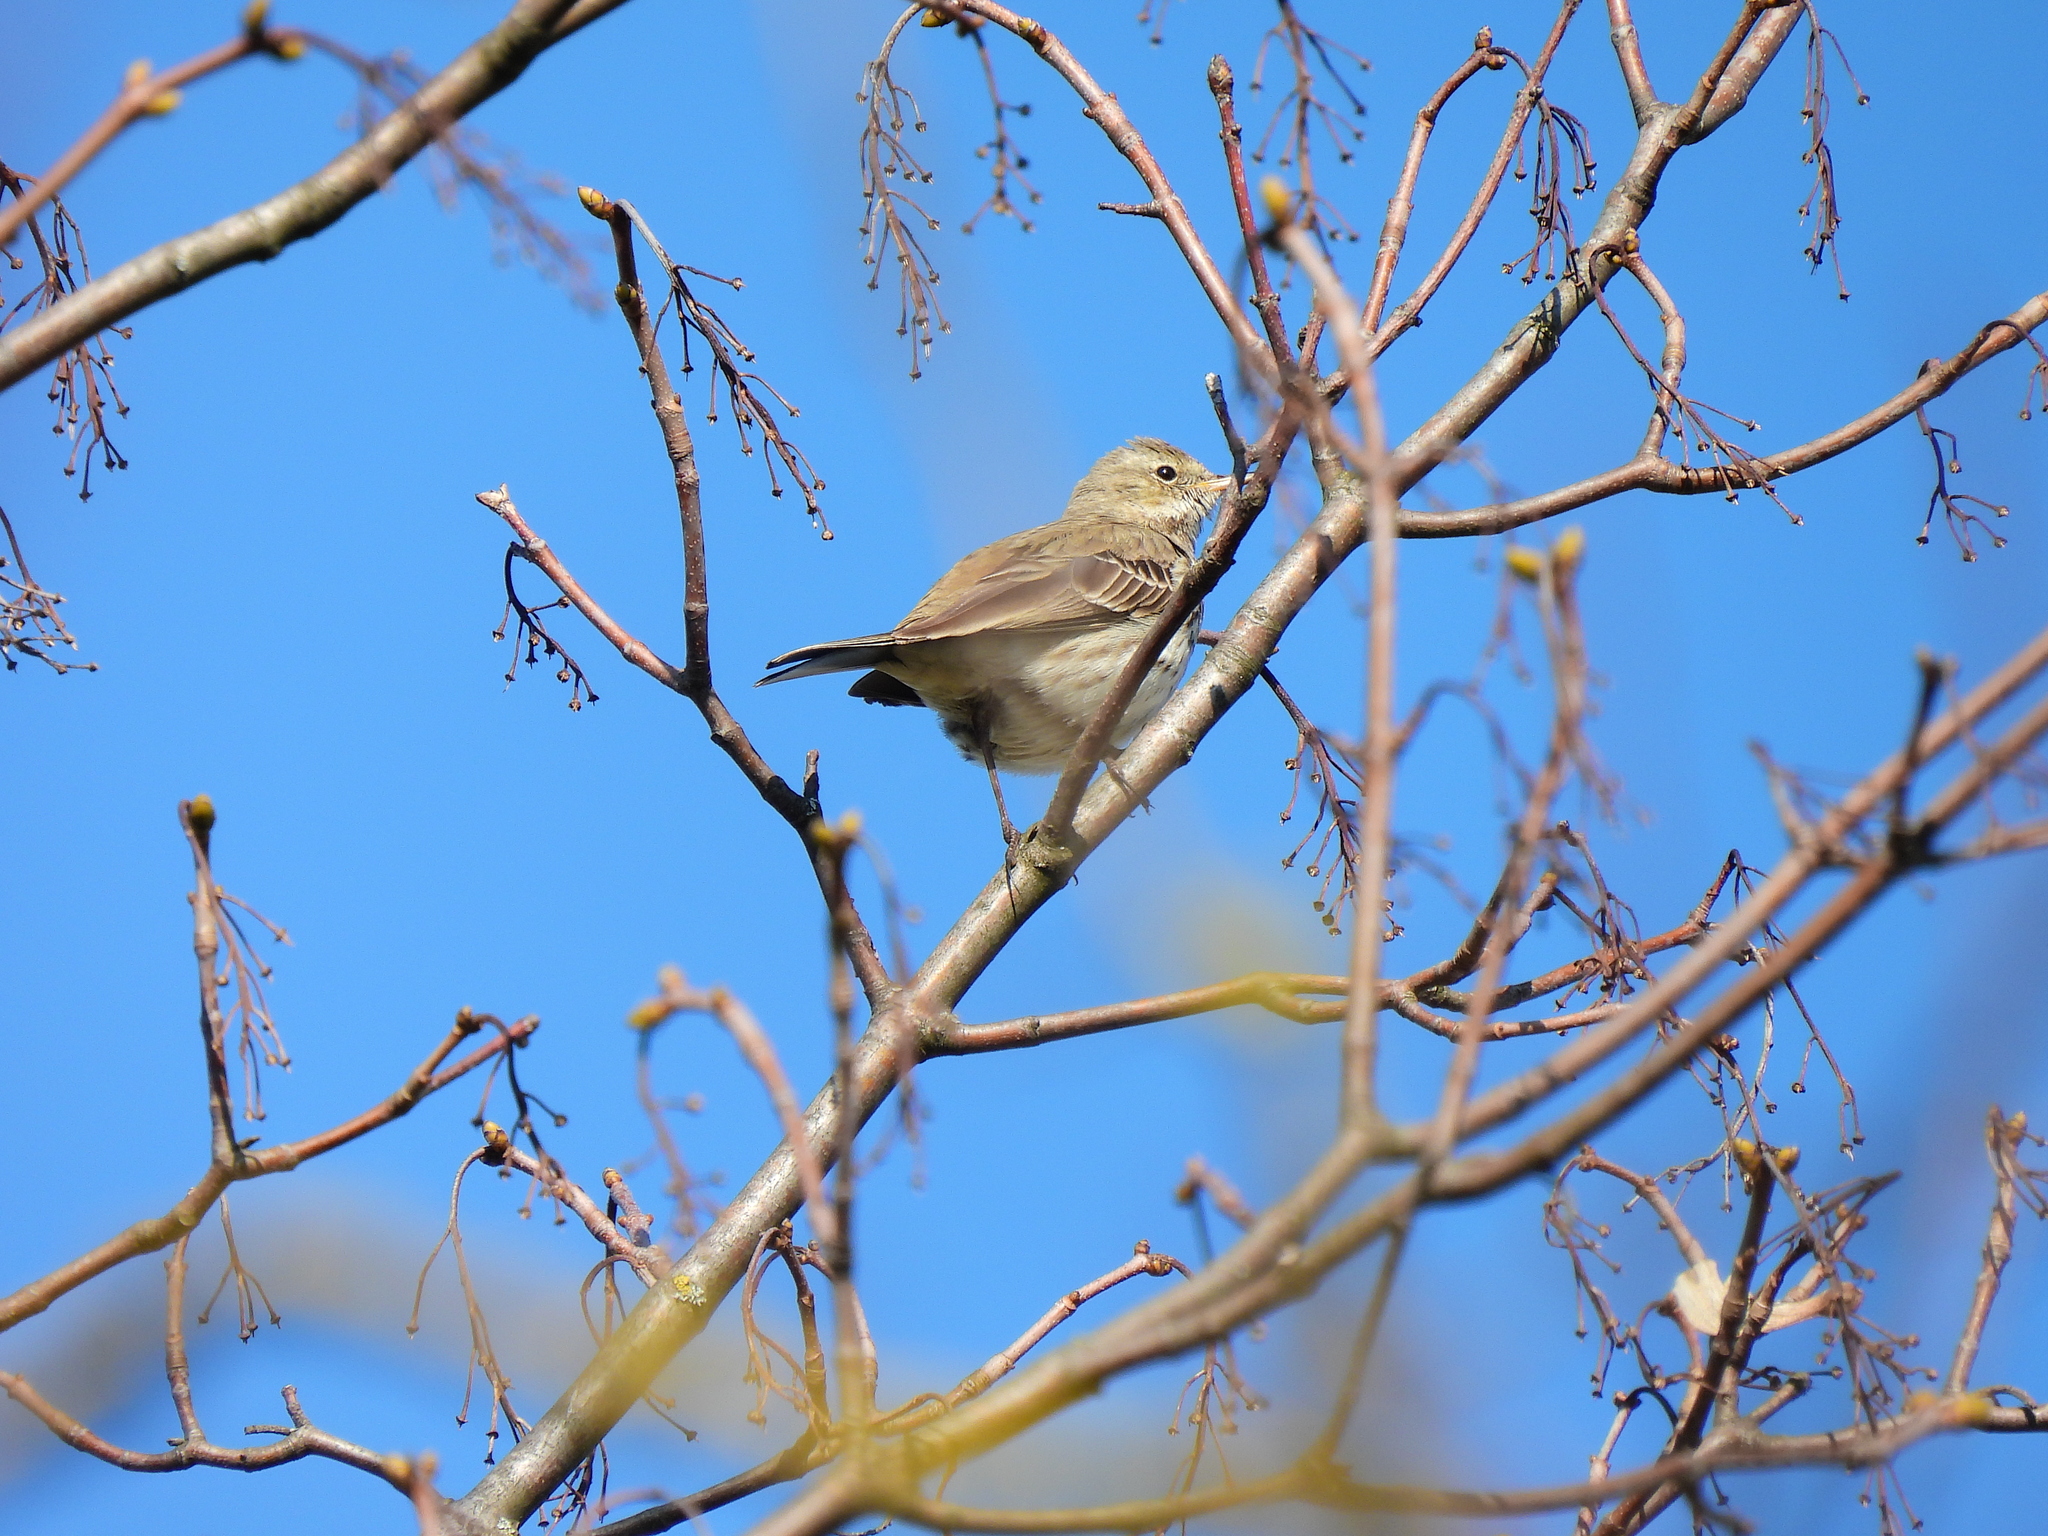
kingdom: Animalia
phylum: Chordata
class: Aves
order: Passeriformes
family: Motacillidae
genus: Anthus
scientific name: Anthus spinoletta
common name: Water pipit
